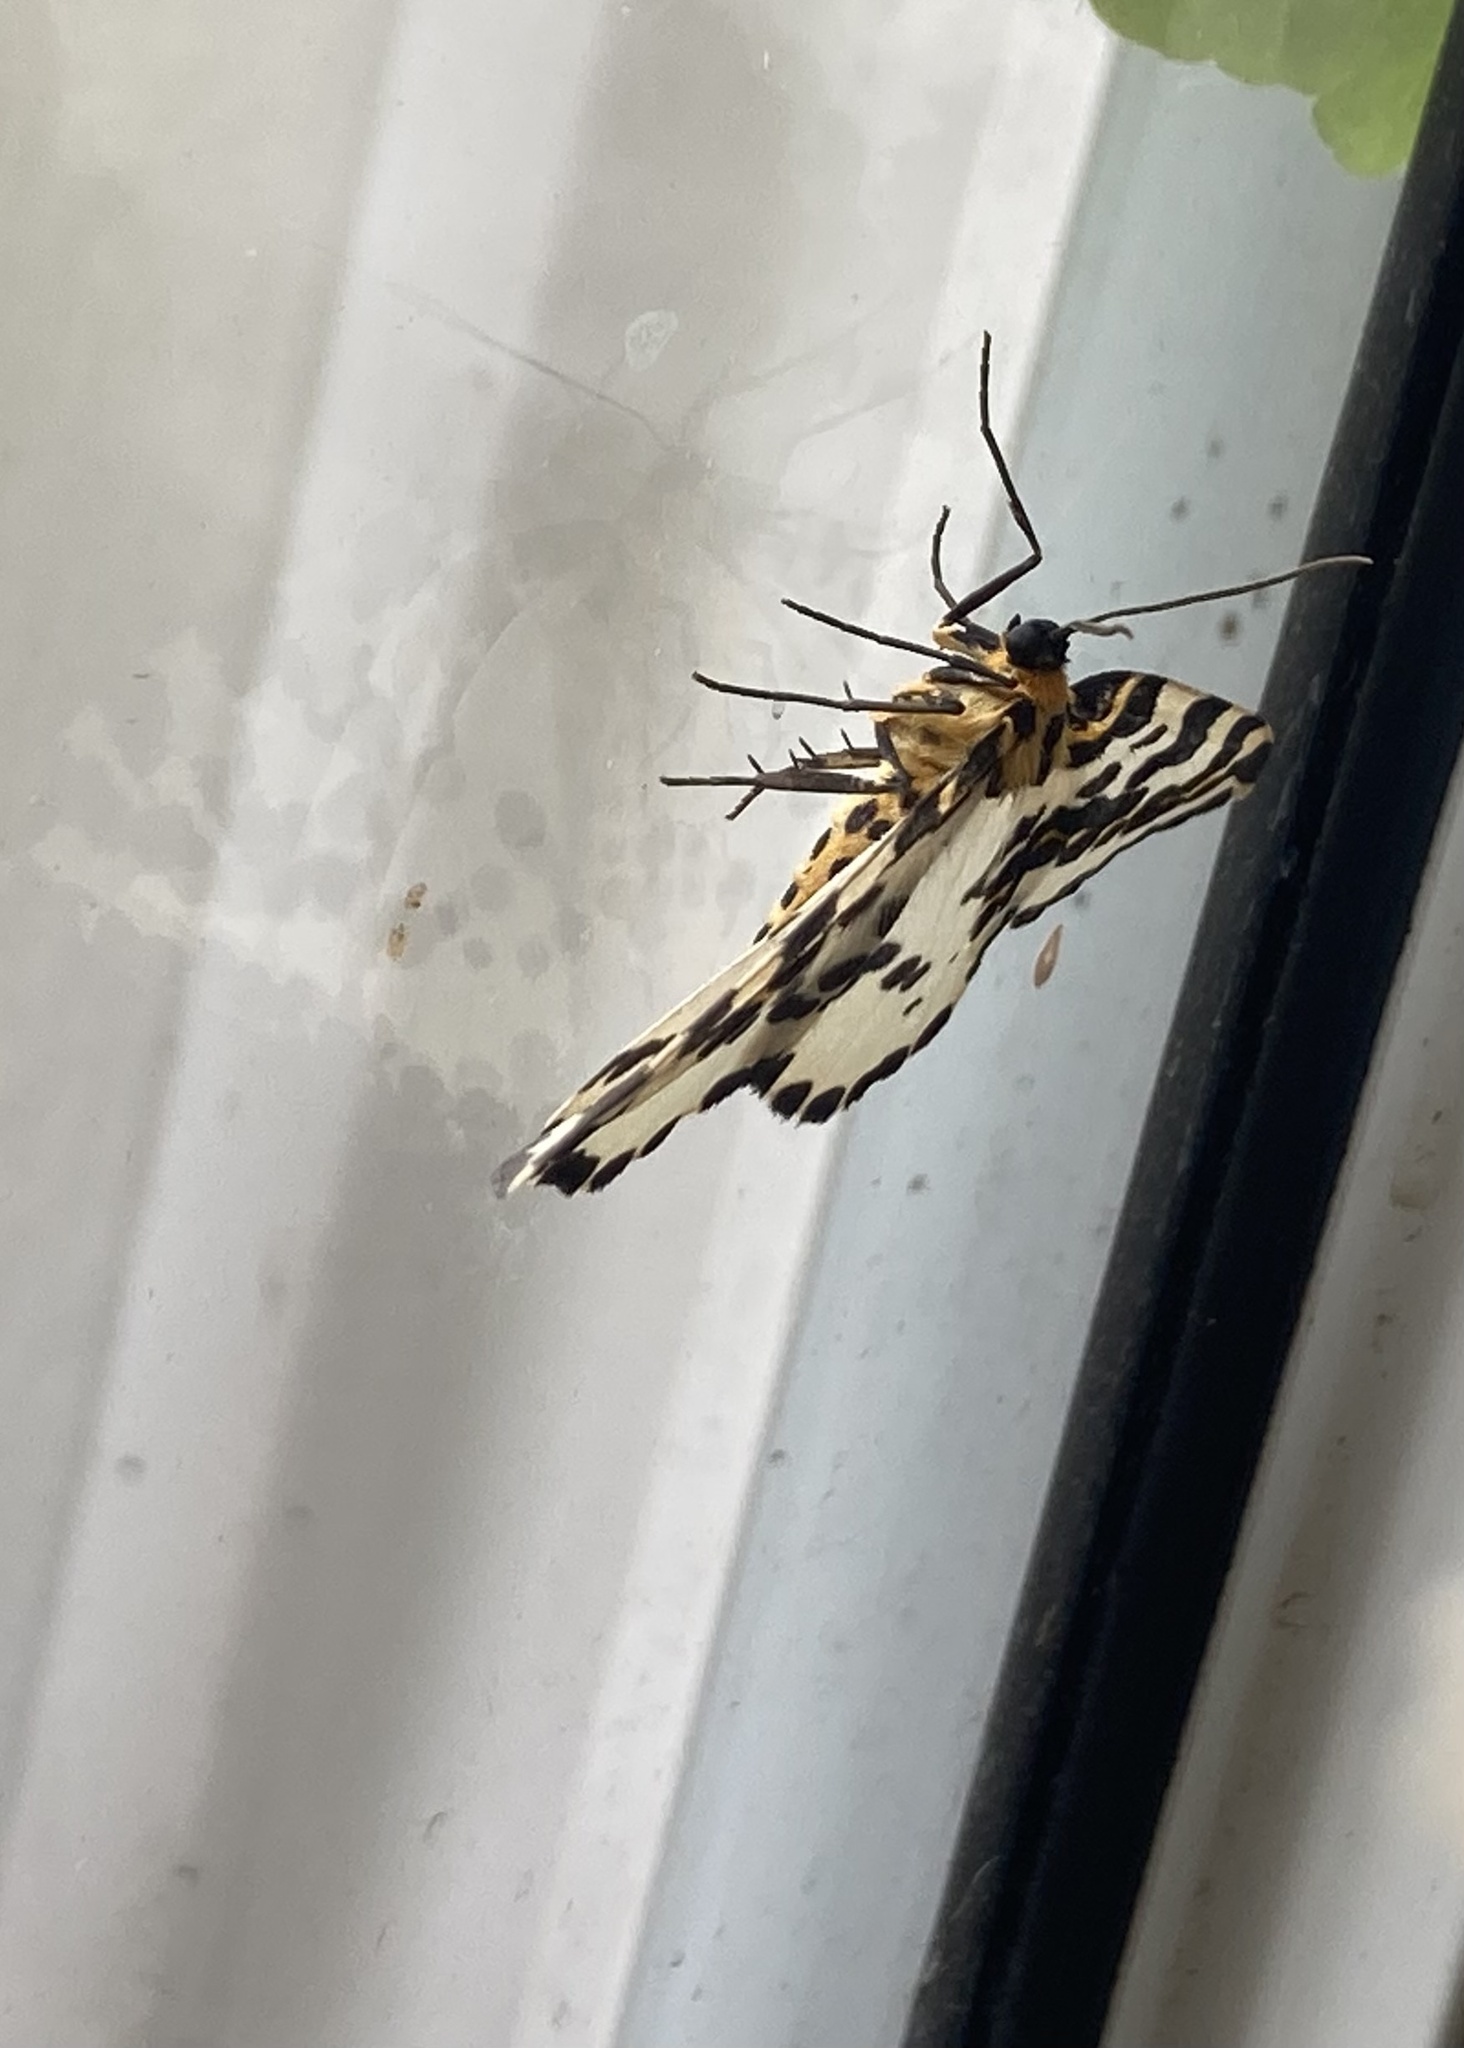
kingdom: Animalia
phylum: Arthropoda
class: Insecta
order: Lepidoptera
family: Geometridae
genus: Abraxas
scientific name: Abraxas grossulariata
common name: Magpie
